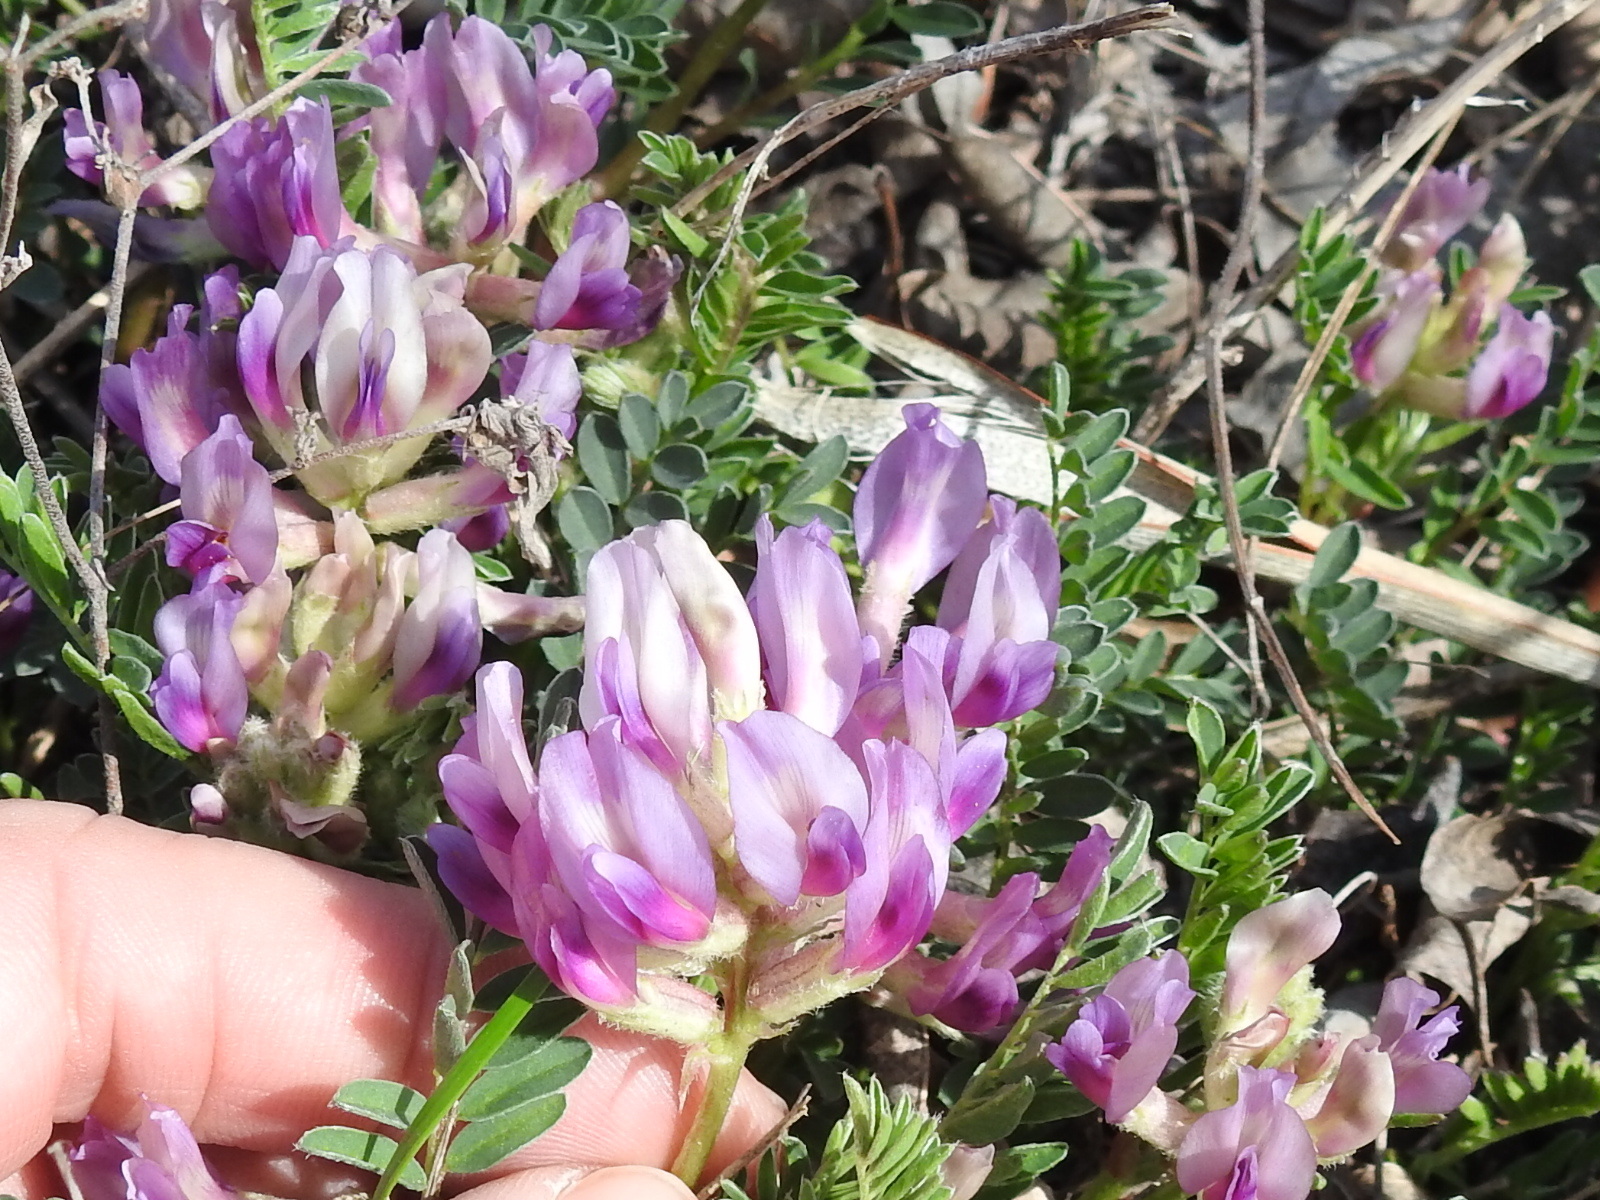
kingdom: Plantae
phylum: Tracheophyta
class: Magnoliopsida
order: Fabales
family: Fabaceae
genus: Astragalus
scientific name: Astragalus crassicarpus
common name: Ground-plum milk-vetch
